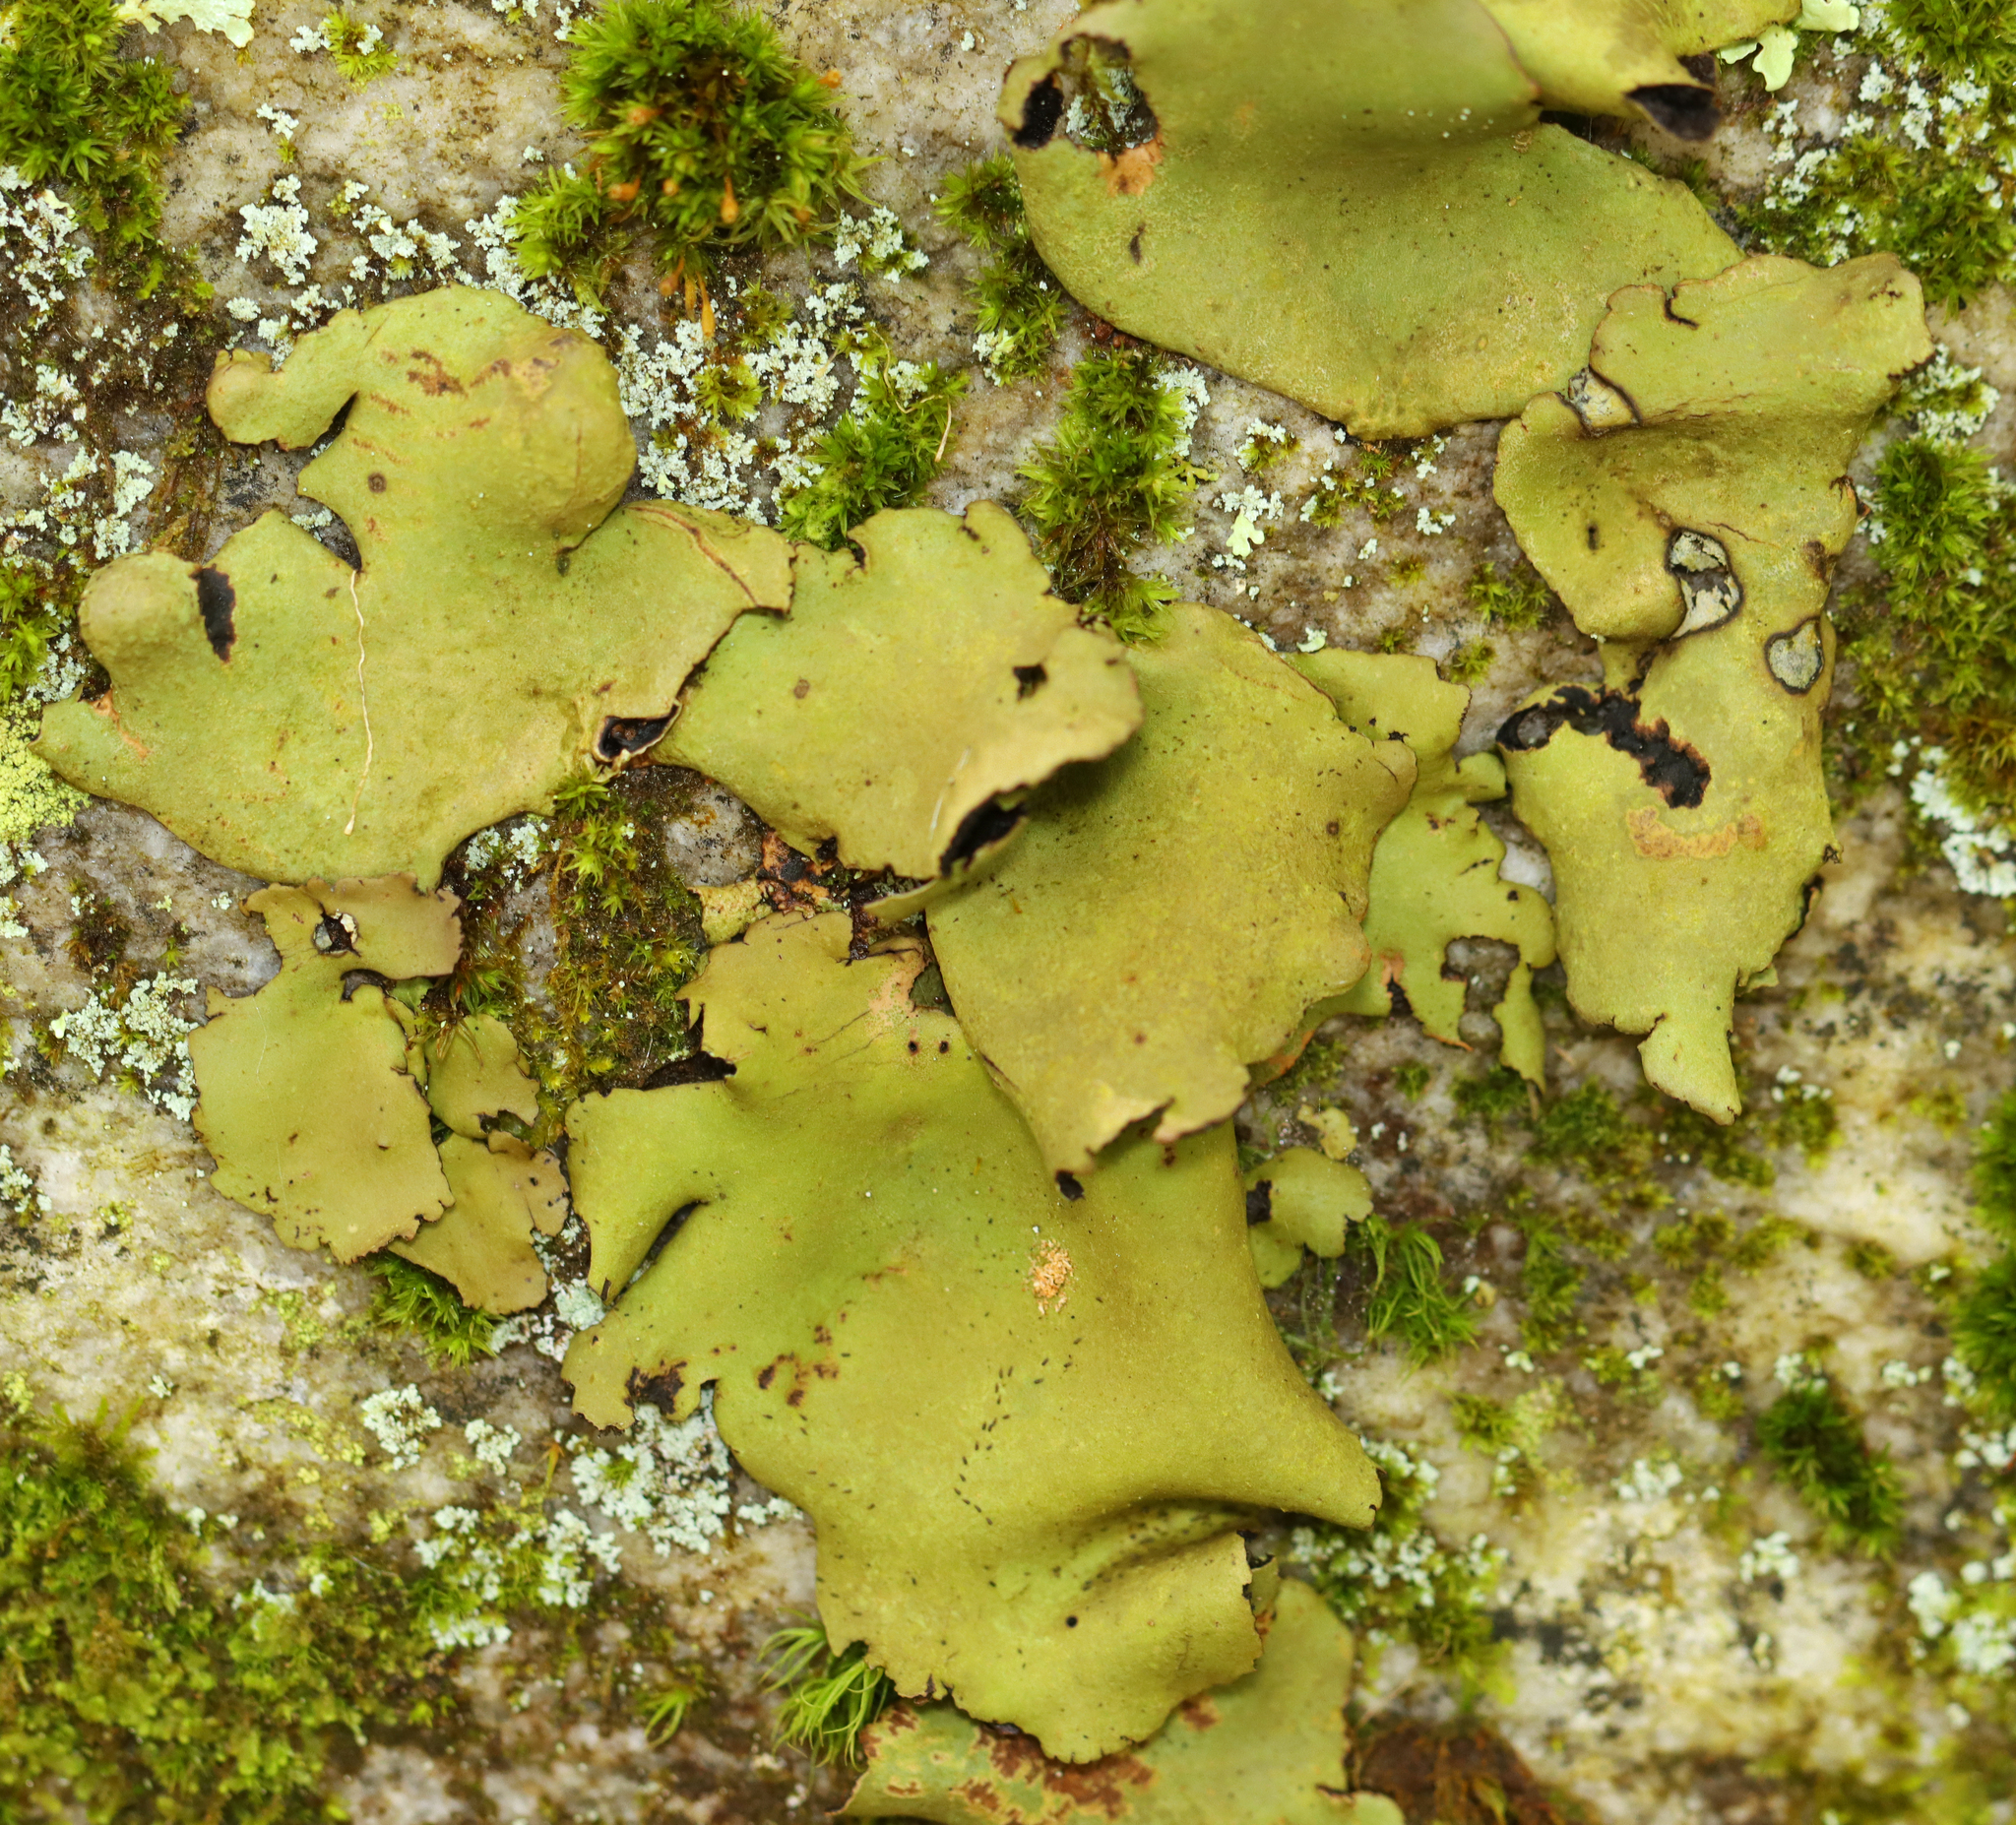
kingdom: Fungi
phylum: Ascomycota
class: Lecanoromycetes
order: Umbilicariales
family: Umbilicariaceae
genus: Umbilicaria
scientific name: Umbilicaria mammulata
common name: Smooth rock tripe
